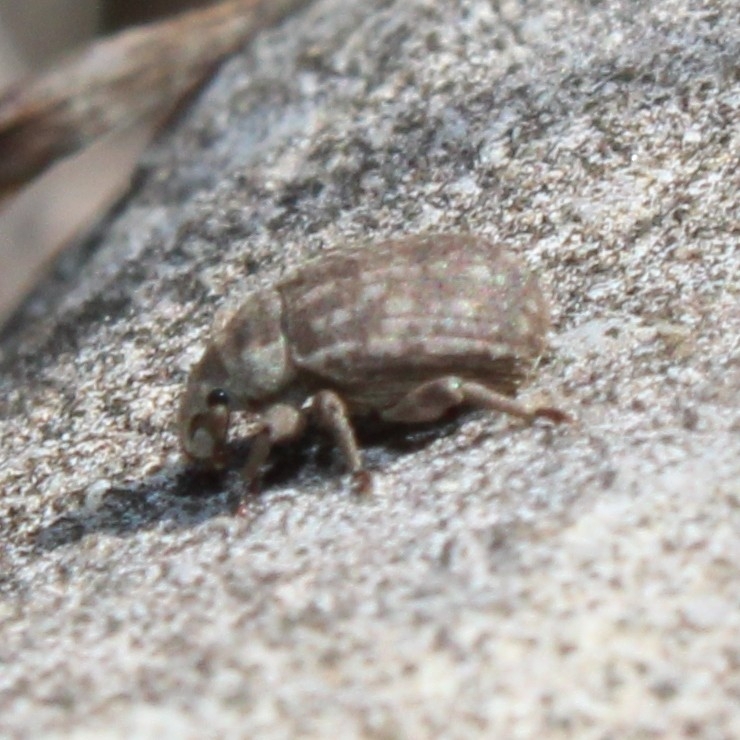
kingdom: Animalia
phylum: Arthropoda
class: Insecta
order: Coleoptera
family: Curculionidae
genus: Romualdius
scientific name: Romualdius scaber
